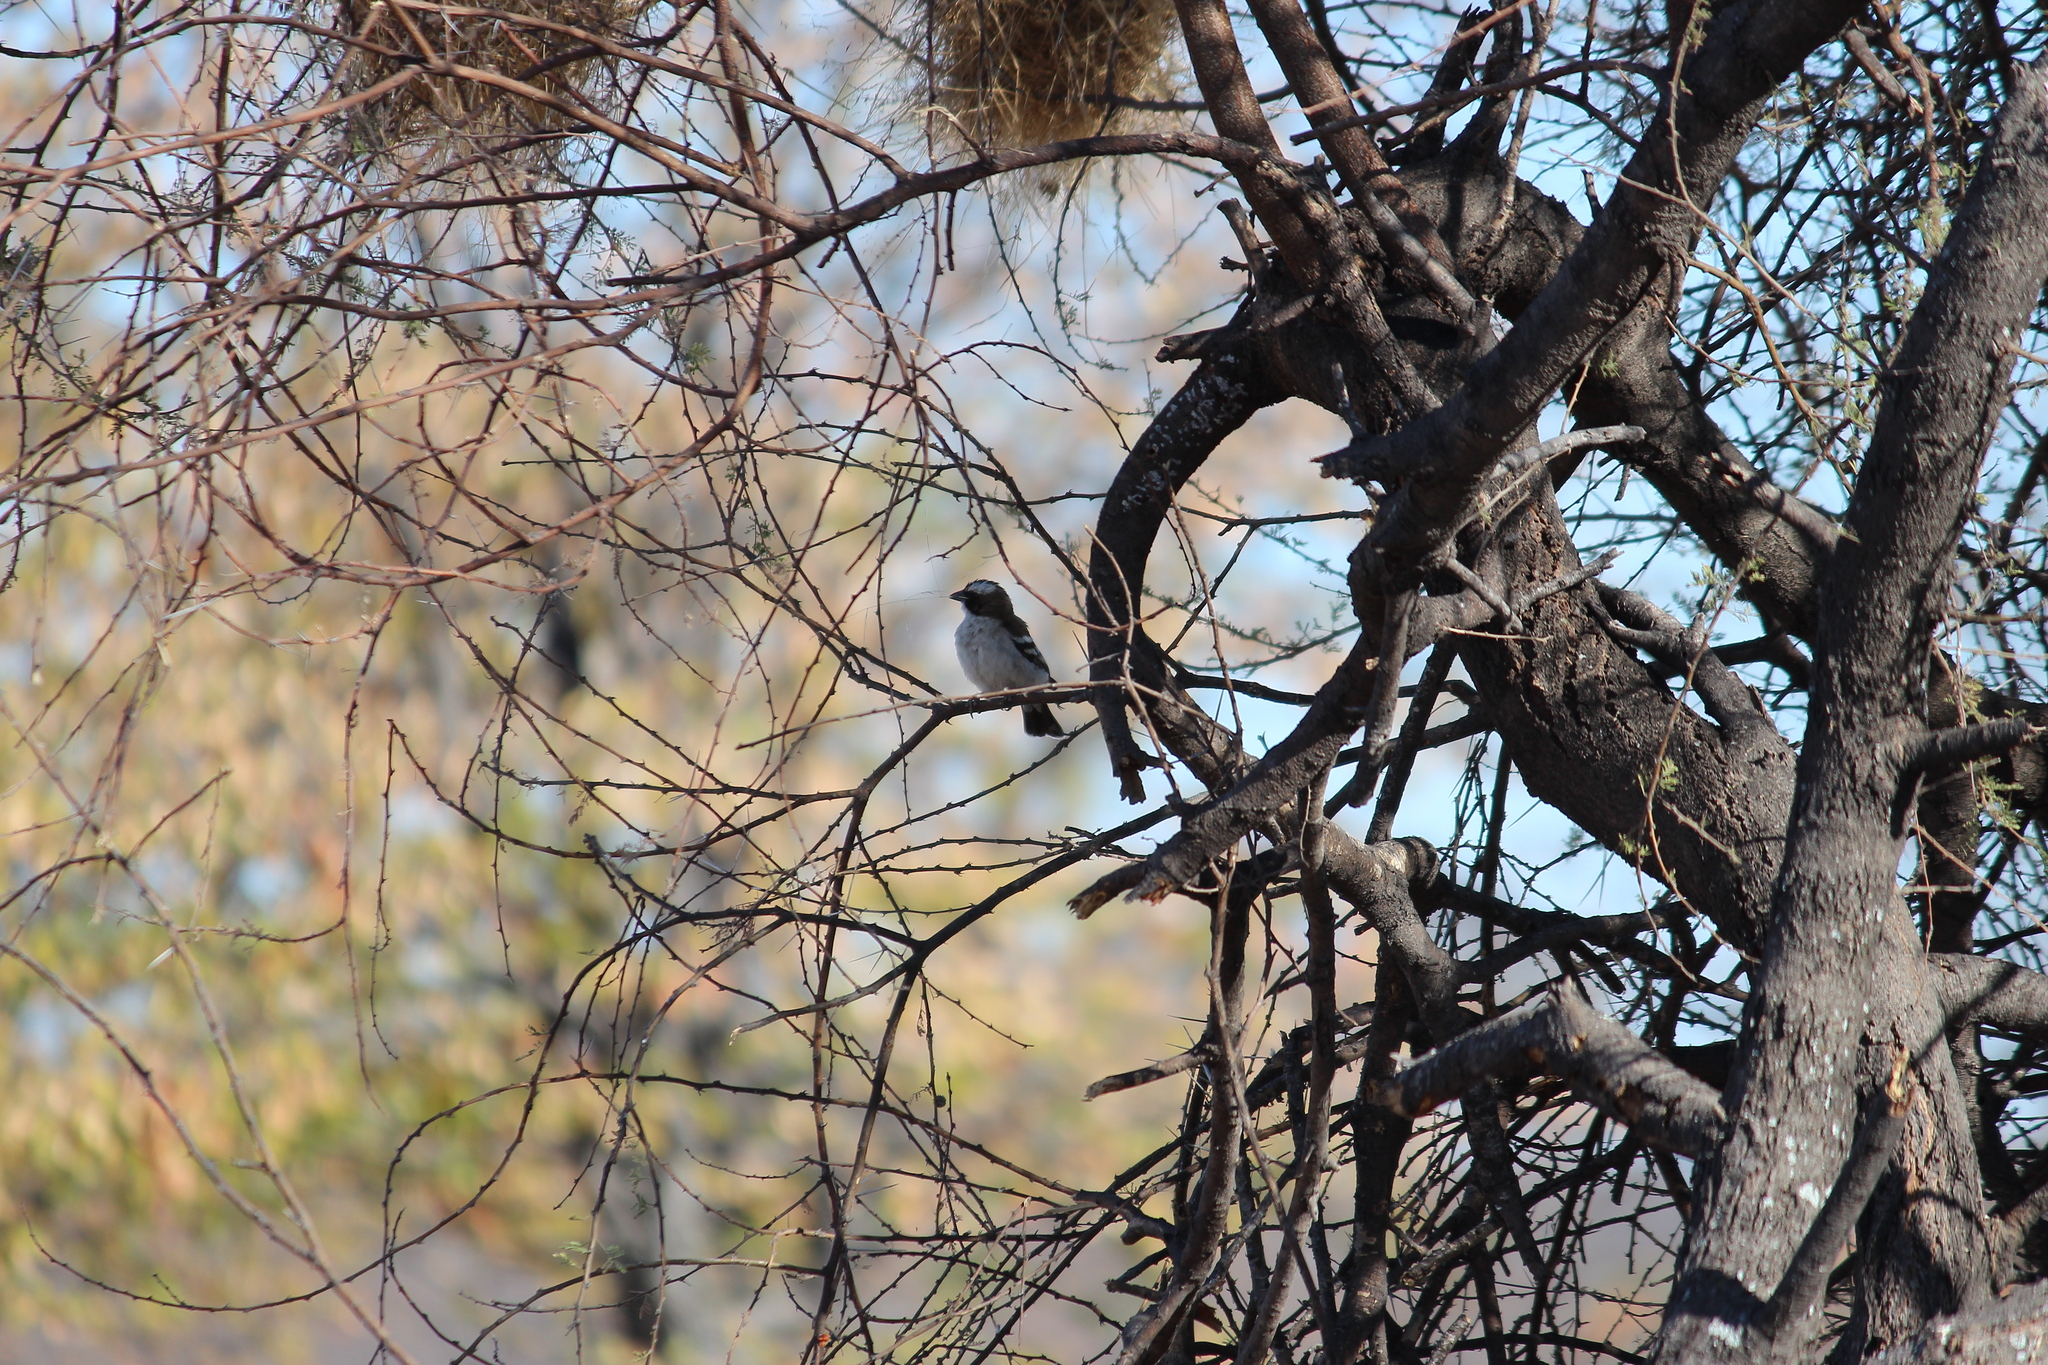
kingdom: Animalia
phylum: Chordata
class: Aves
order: Passeriformes
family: Passeridae
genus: Plocepasser
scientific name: Plocepasser mahali
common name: White-browed sparrow-weaver
